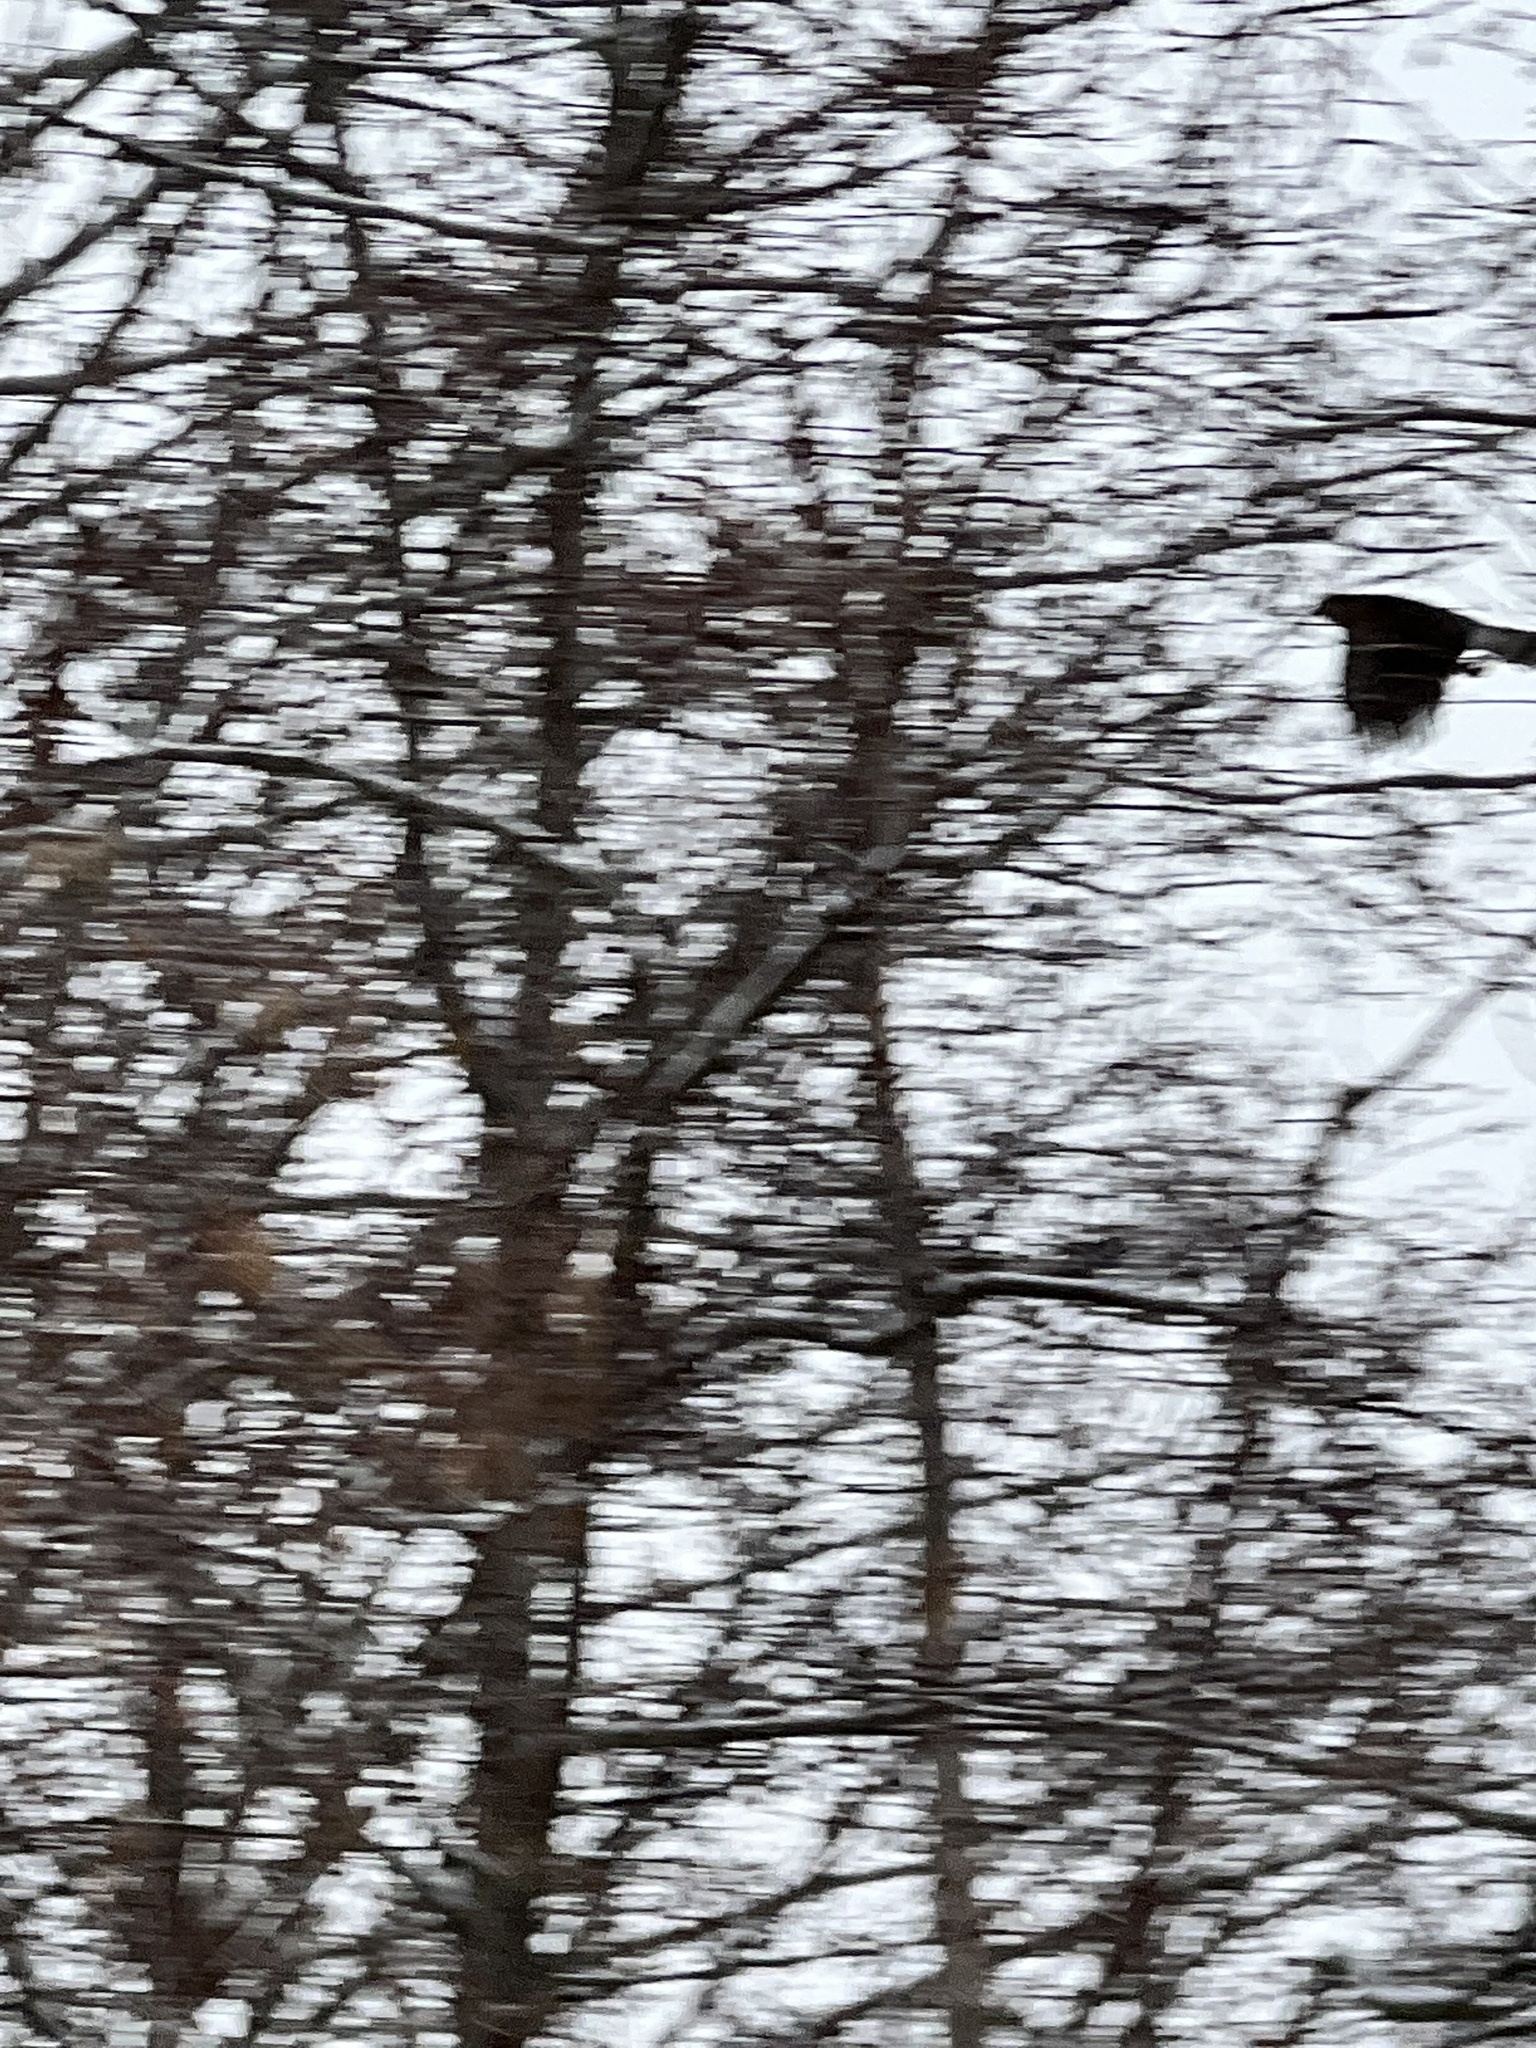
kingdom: Animalia
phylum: Chordata
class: Aves
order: Accipitriformes
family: Accipitridae
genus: Accipiter
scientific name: Accipiter cooperii
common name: Cooper's hawk
